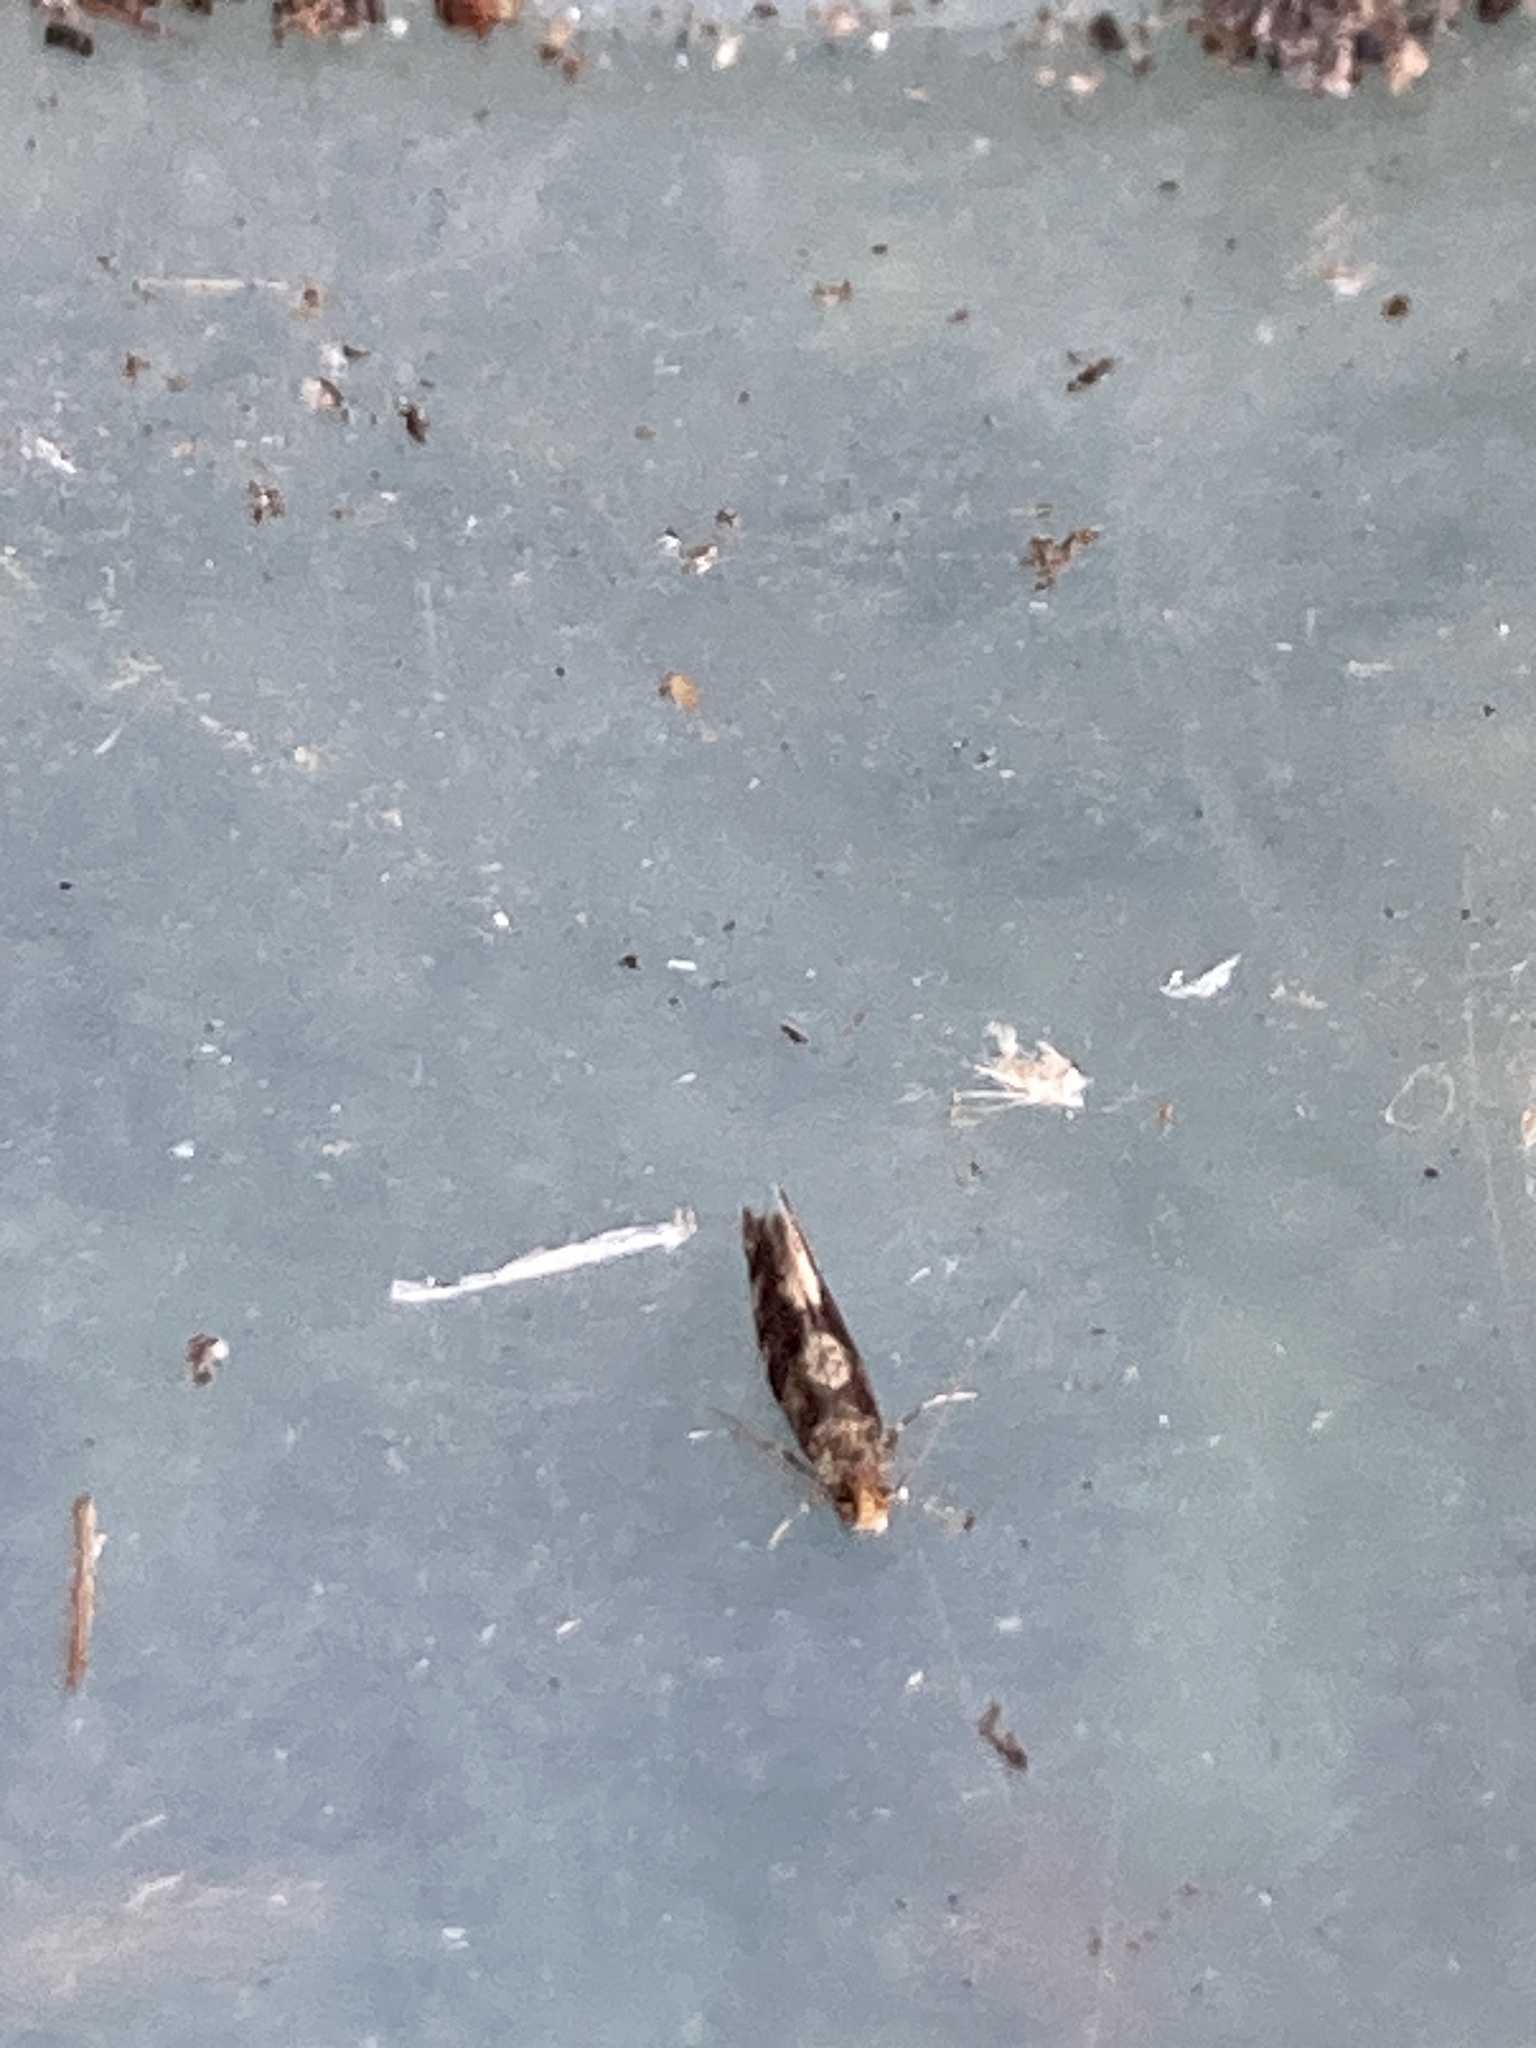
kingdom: Animalia
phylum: Arthropoda
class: Insecta
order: Lepidoptera
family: Incurvariidae
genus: Lampronia
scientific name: Lampronia oehlmaniella
